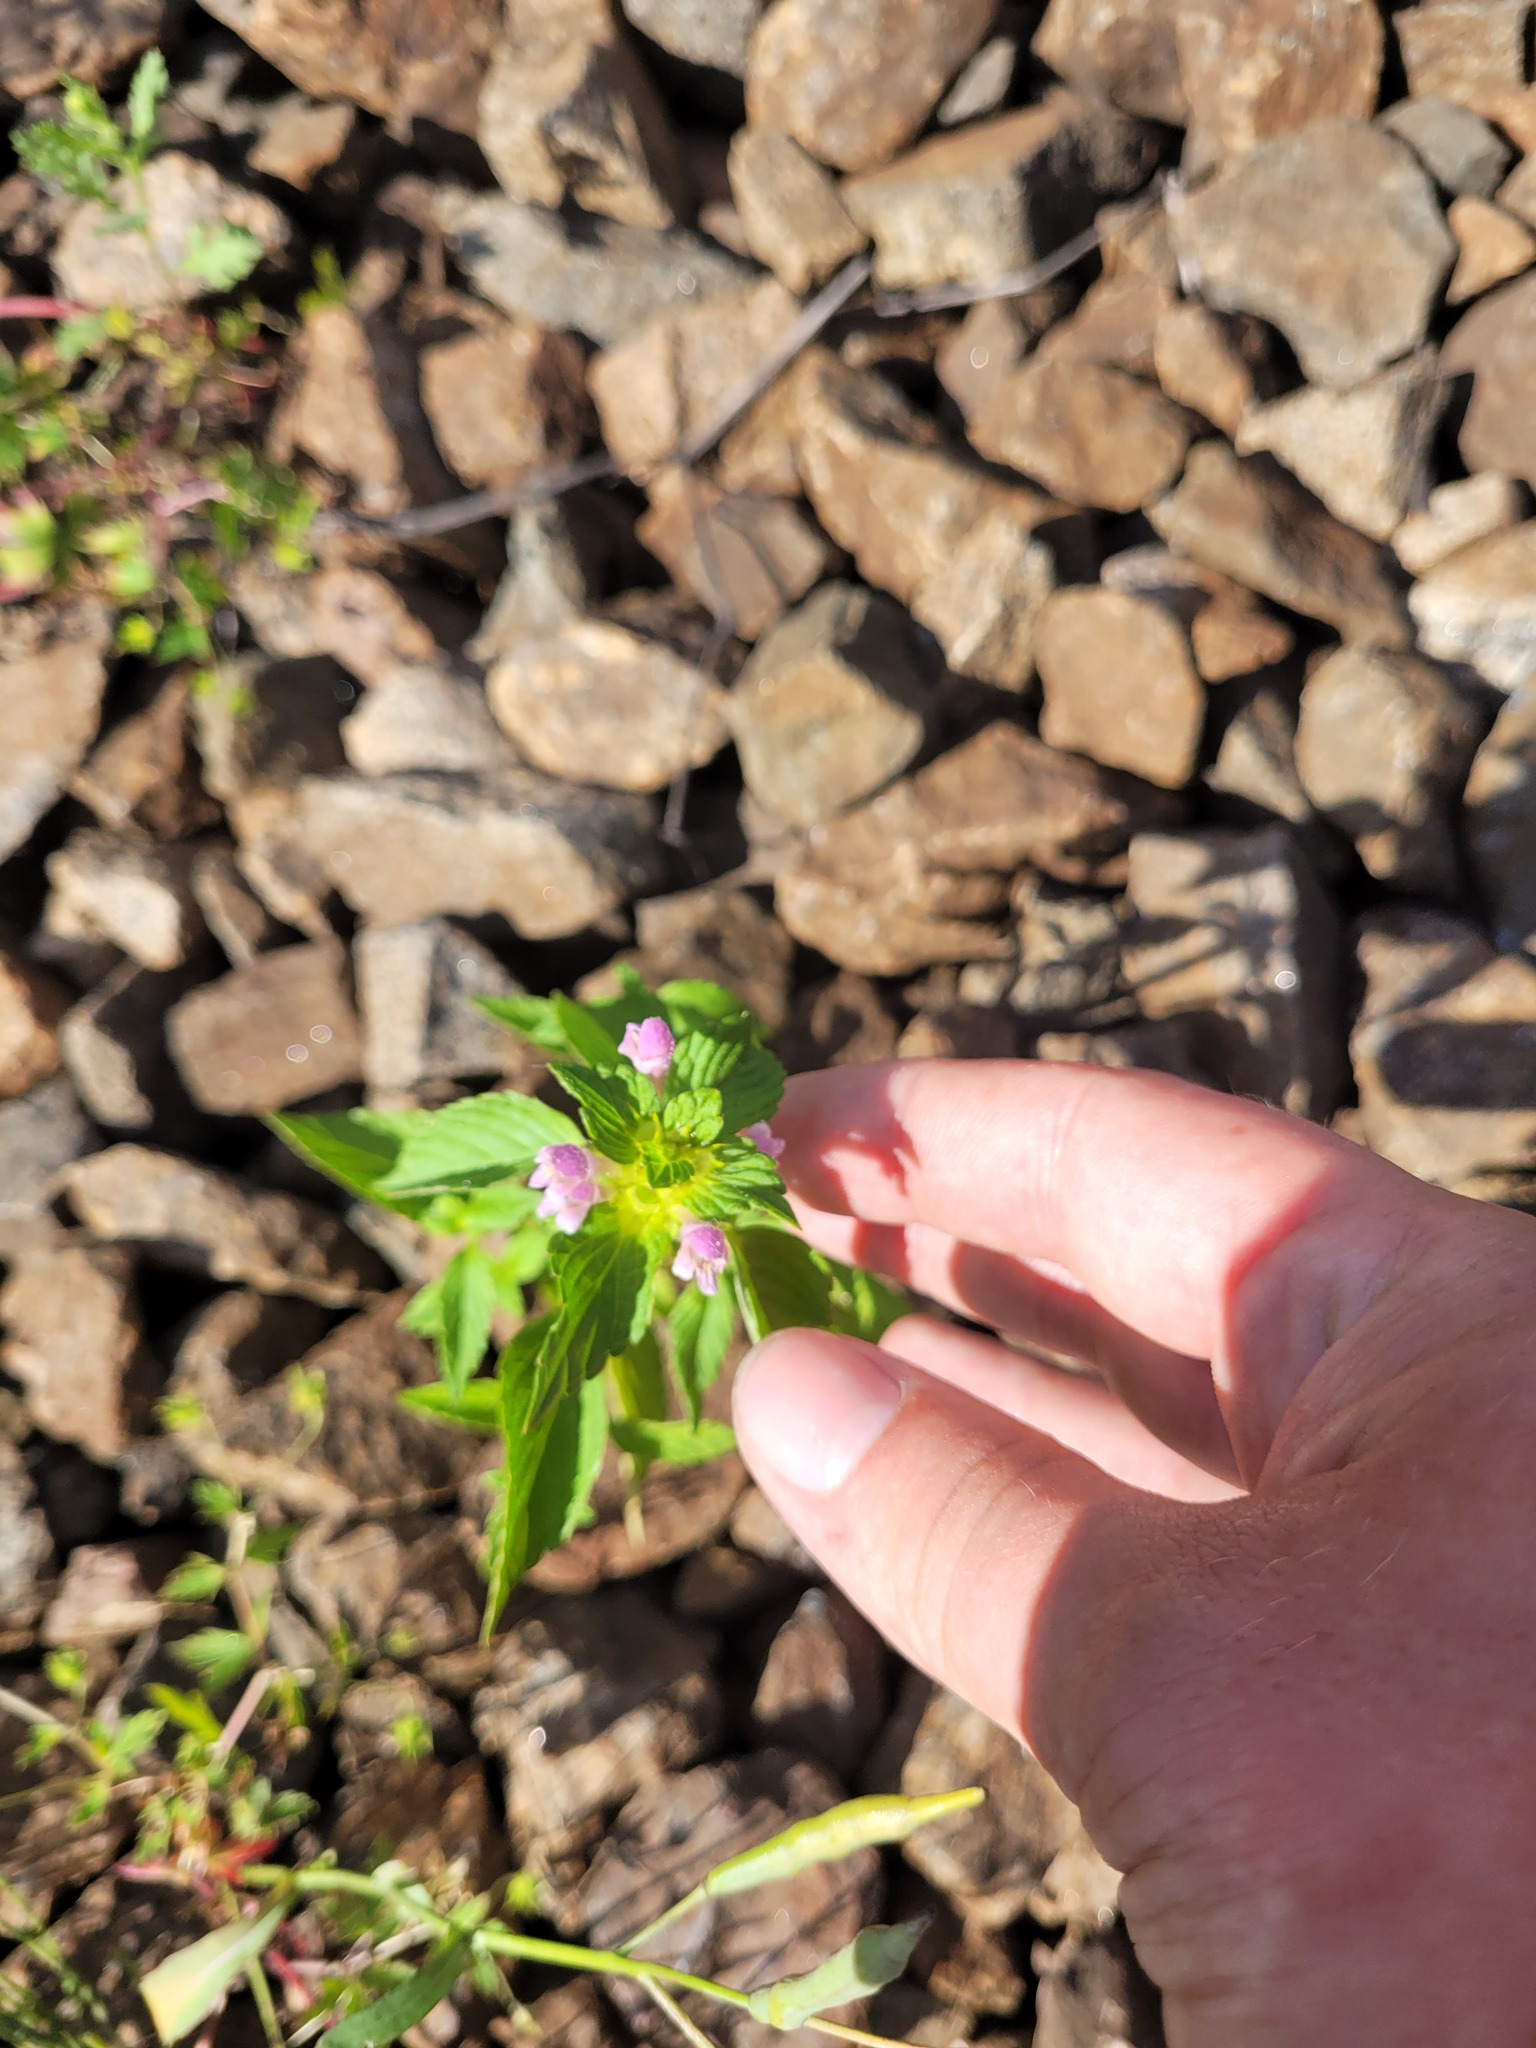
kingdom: Plantae
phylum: Tracheophyta
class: Magnoliopsida
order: Lamiales
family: Lamiaceae
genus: Galeopsis
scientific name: Galeopsis bifida
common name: Bifid hemp-nettle
